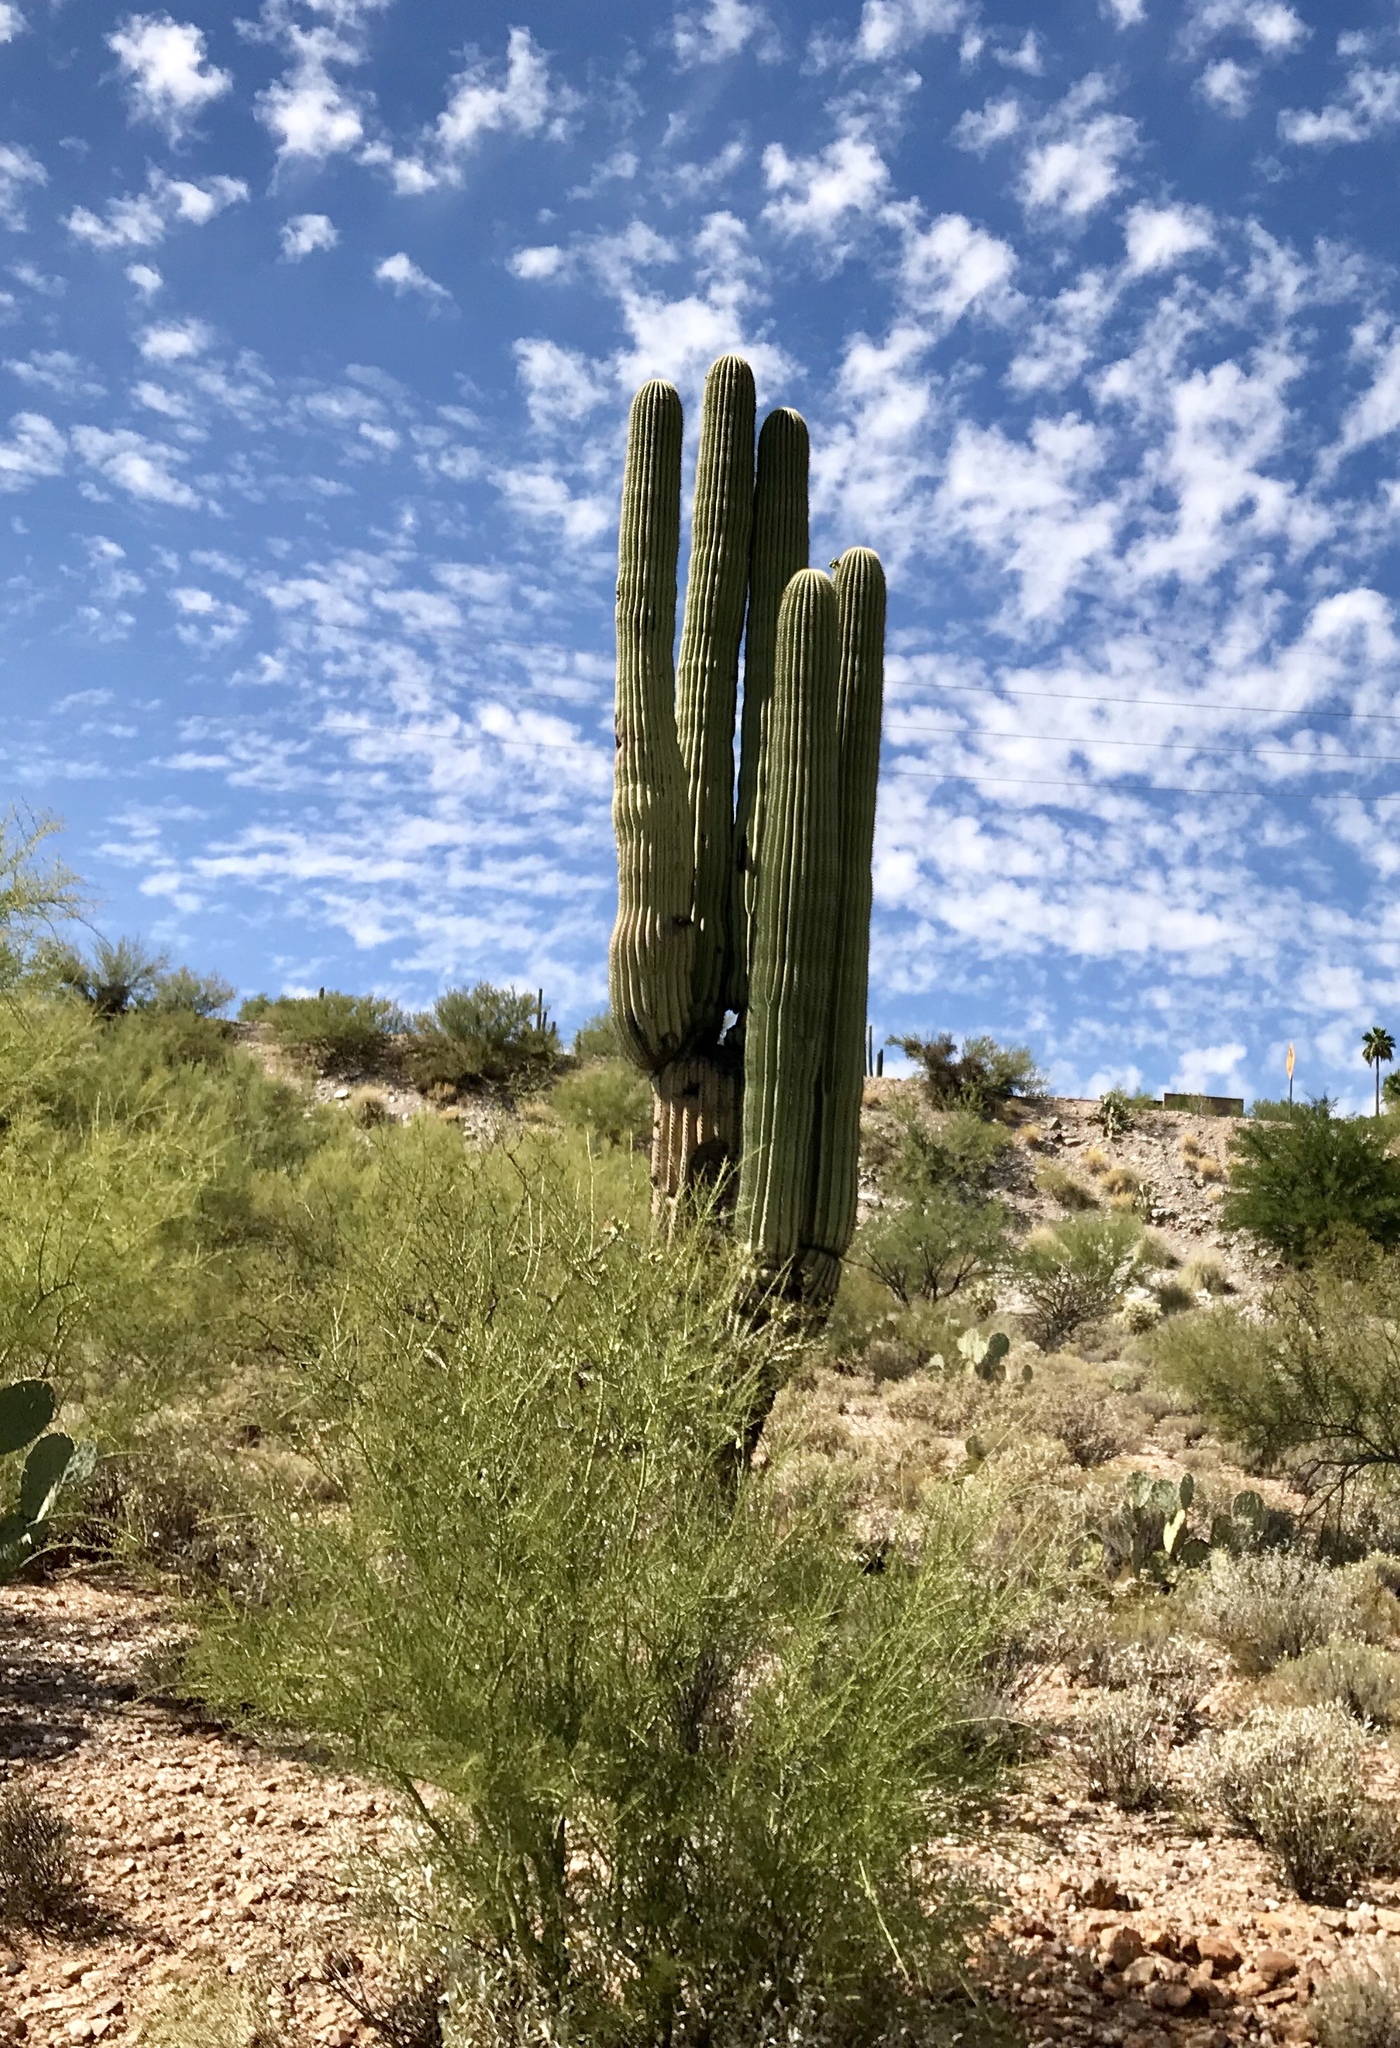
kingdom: Plantae
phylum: Tracheophyta
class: Magnoliopsida
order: Caryophyllales
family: Cactaceae
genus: Carnegiea
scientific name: Carnegiea gigantea
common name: Saguaro
